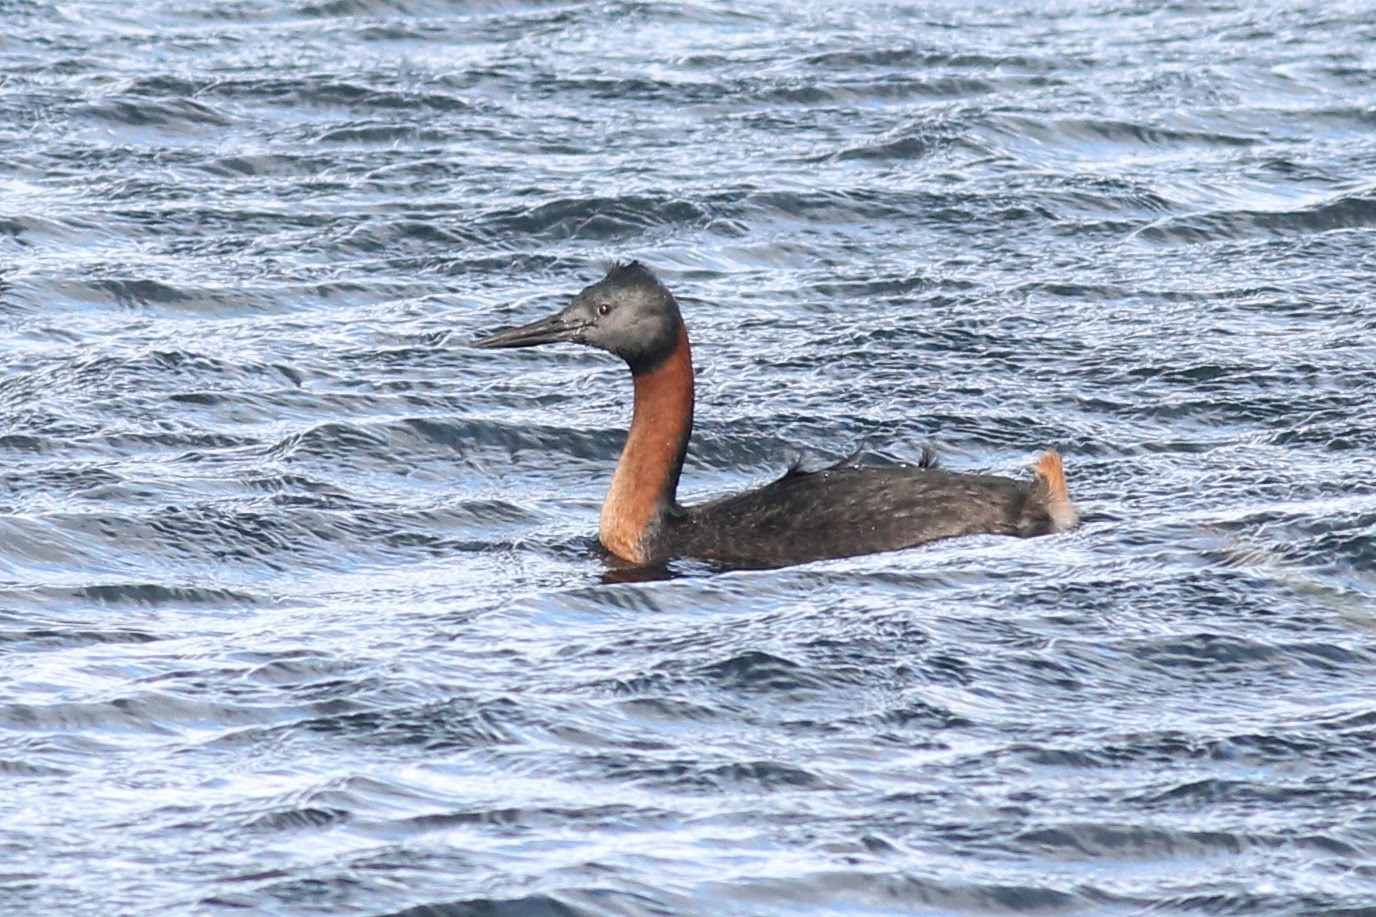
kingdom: Animalia
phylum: Chordata
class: Aves
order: Podicipediformes
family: Podicipedidae
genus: Podiceps
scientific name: Podiceps major
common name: Great grebe
